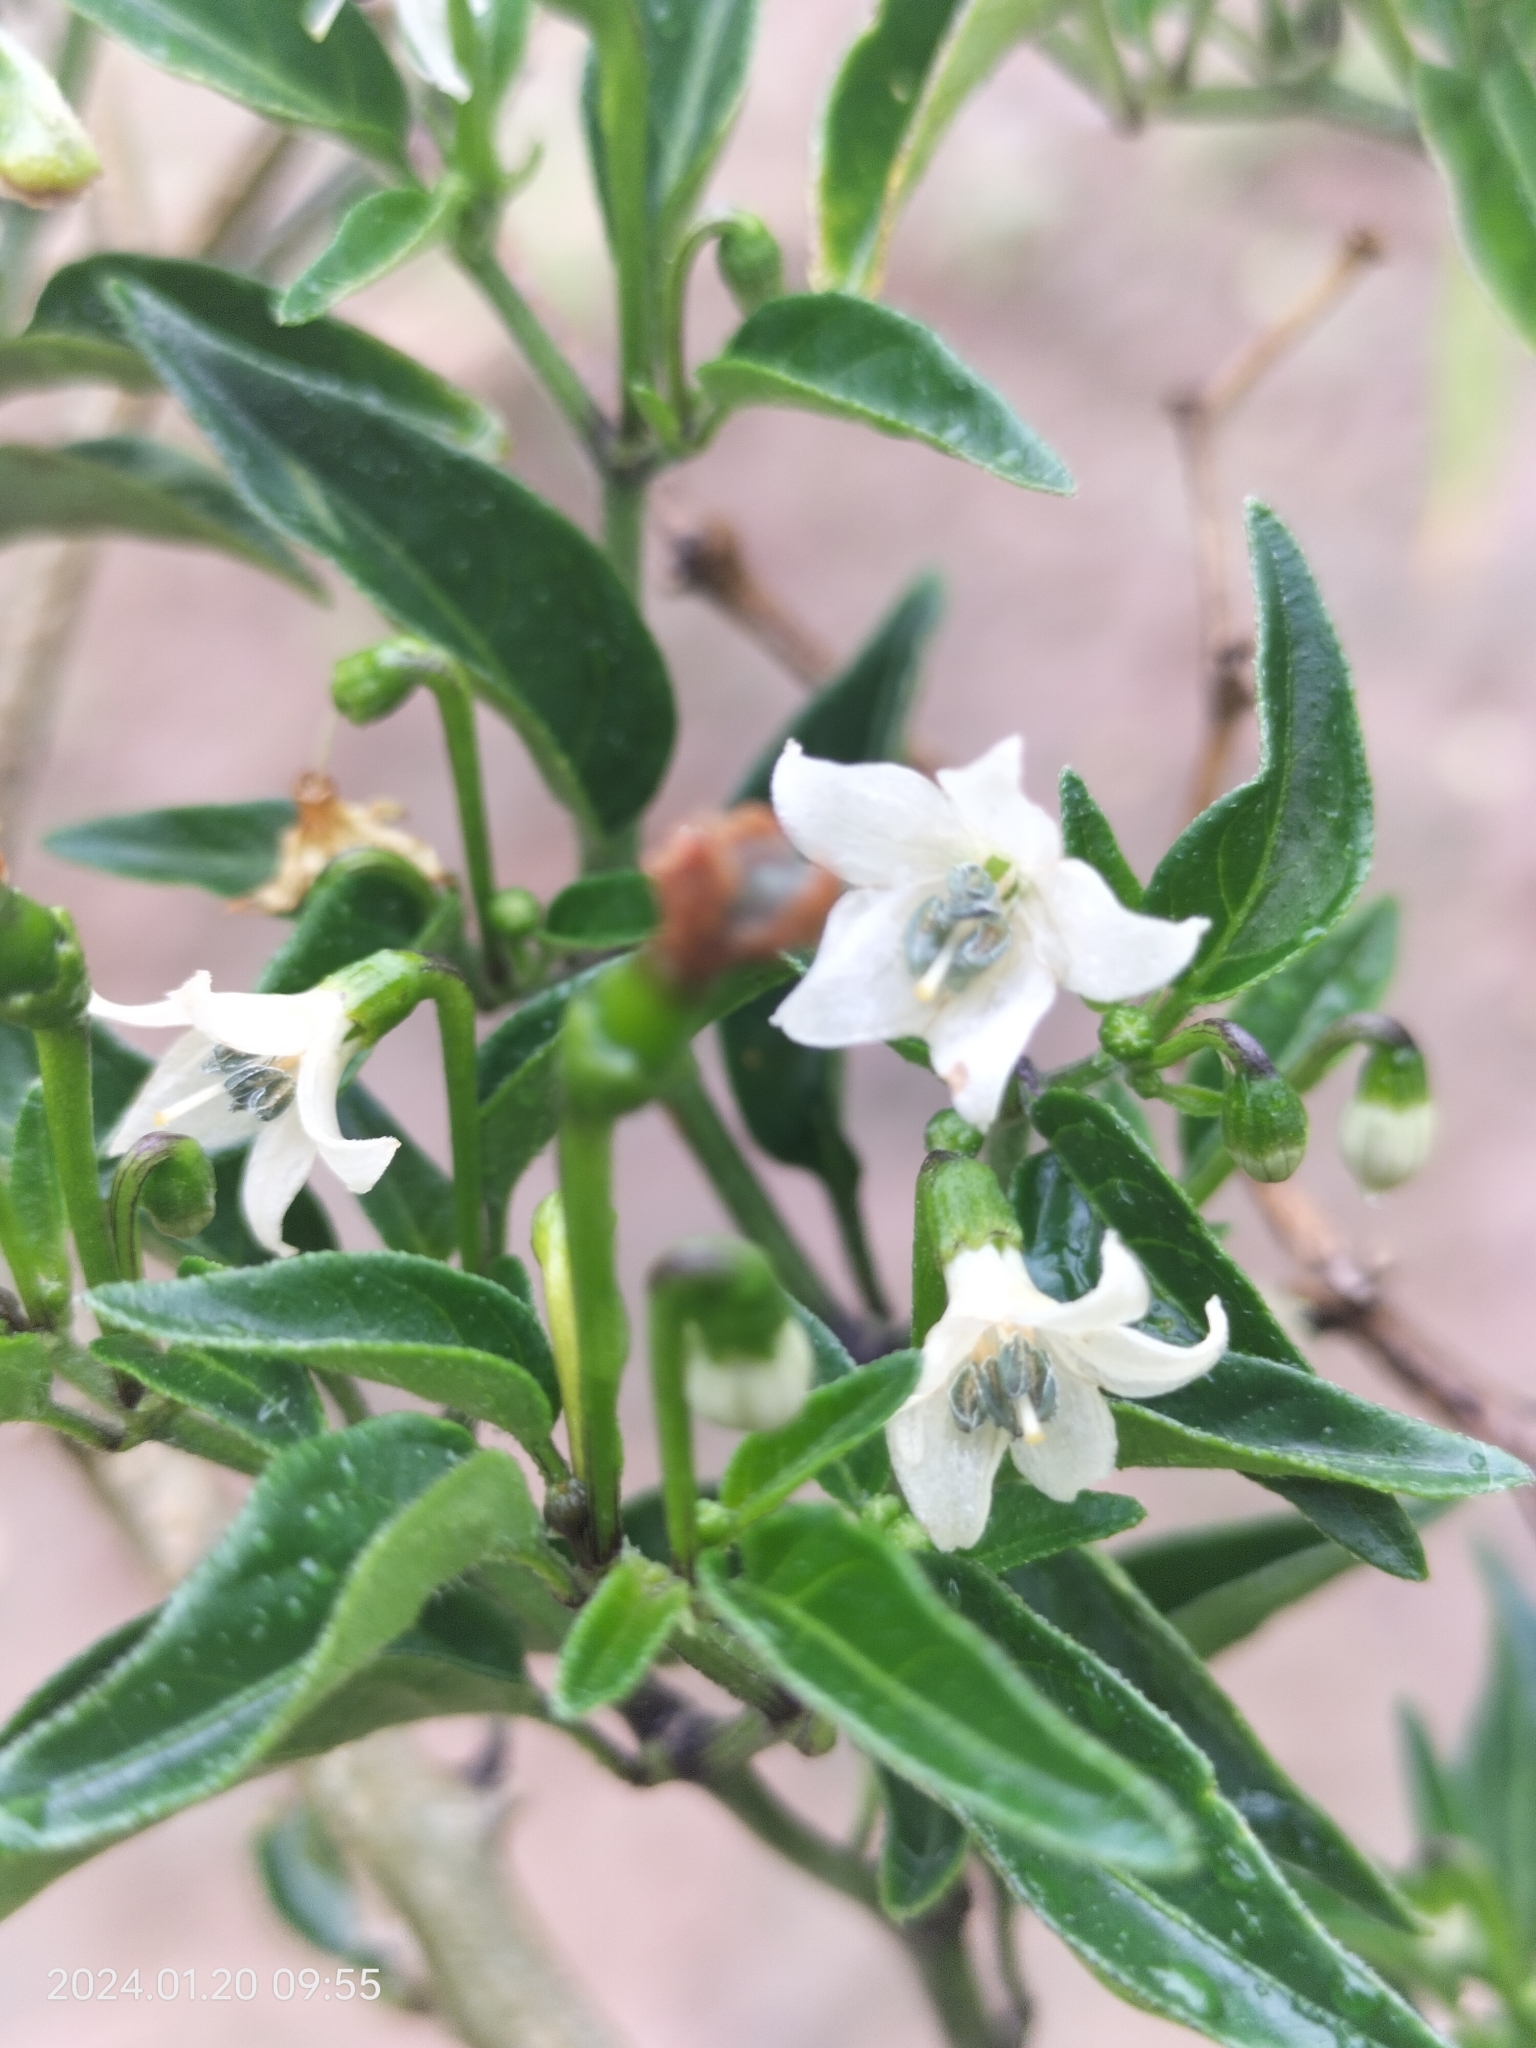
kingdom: Plantae
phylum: Tracheophyta
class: Magnoliopsida
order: Solanales
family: Solanaceae
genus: Capsicum
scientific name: Capsicum annuum
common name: Sweet pepper
